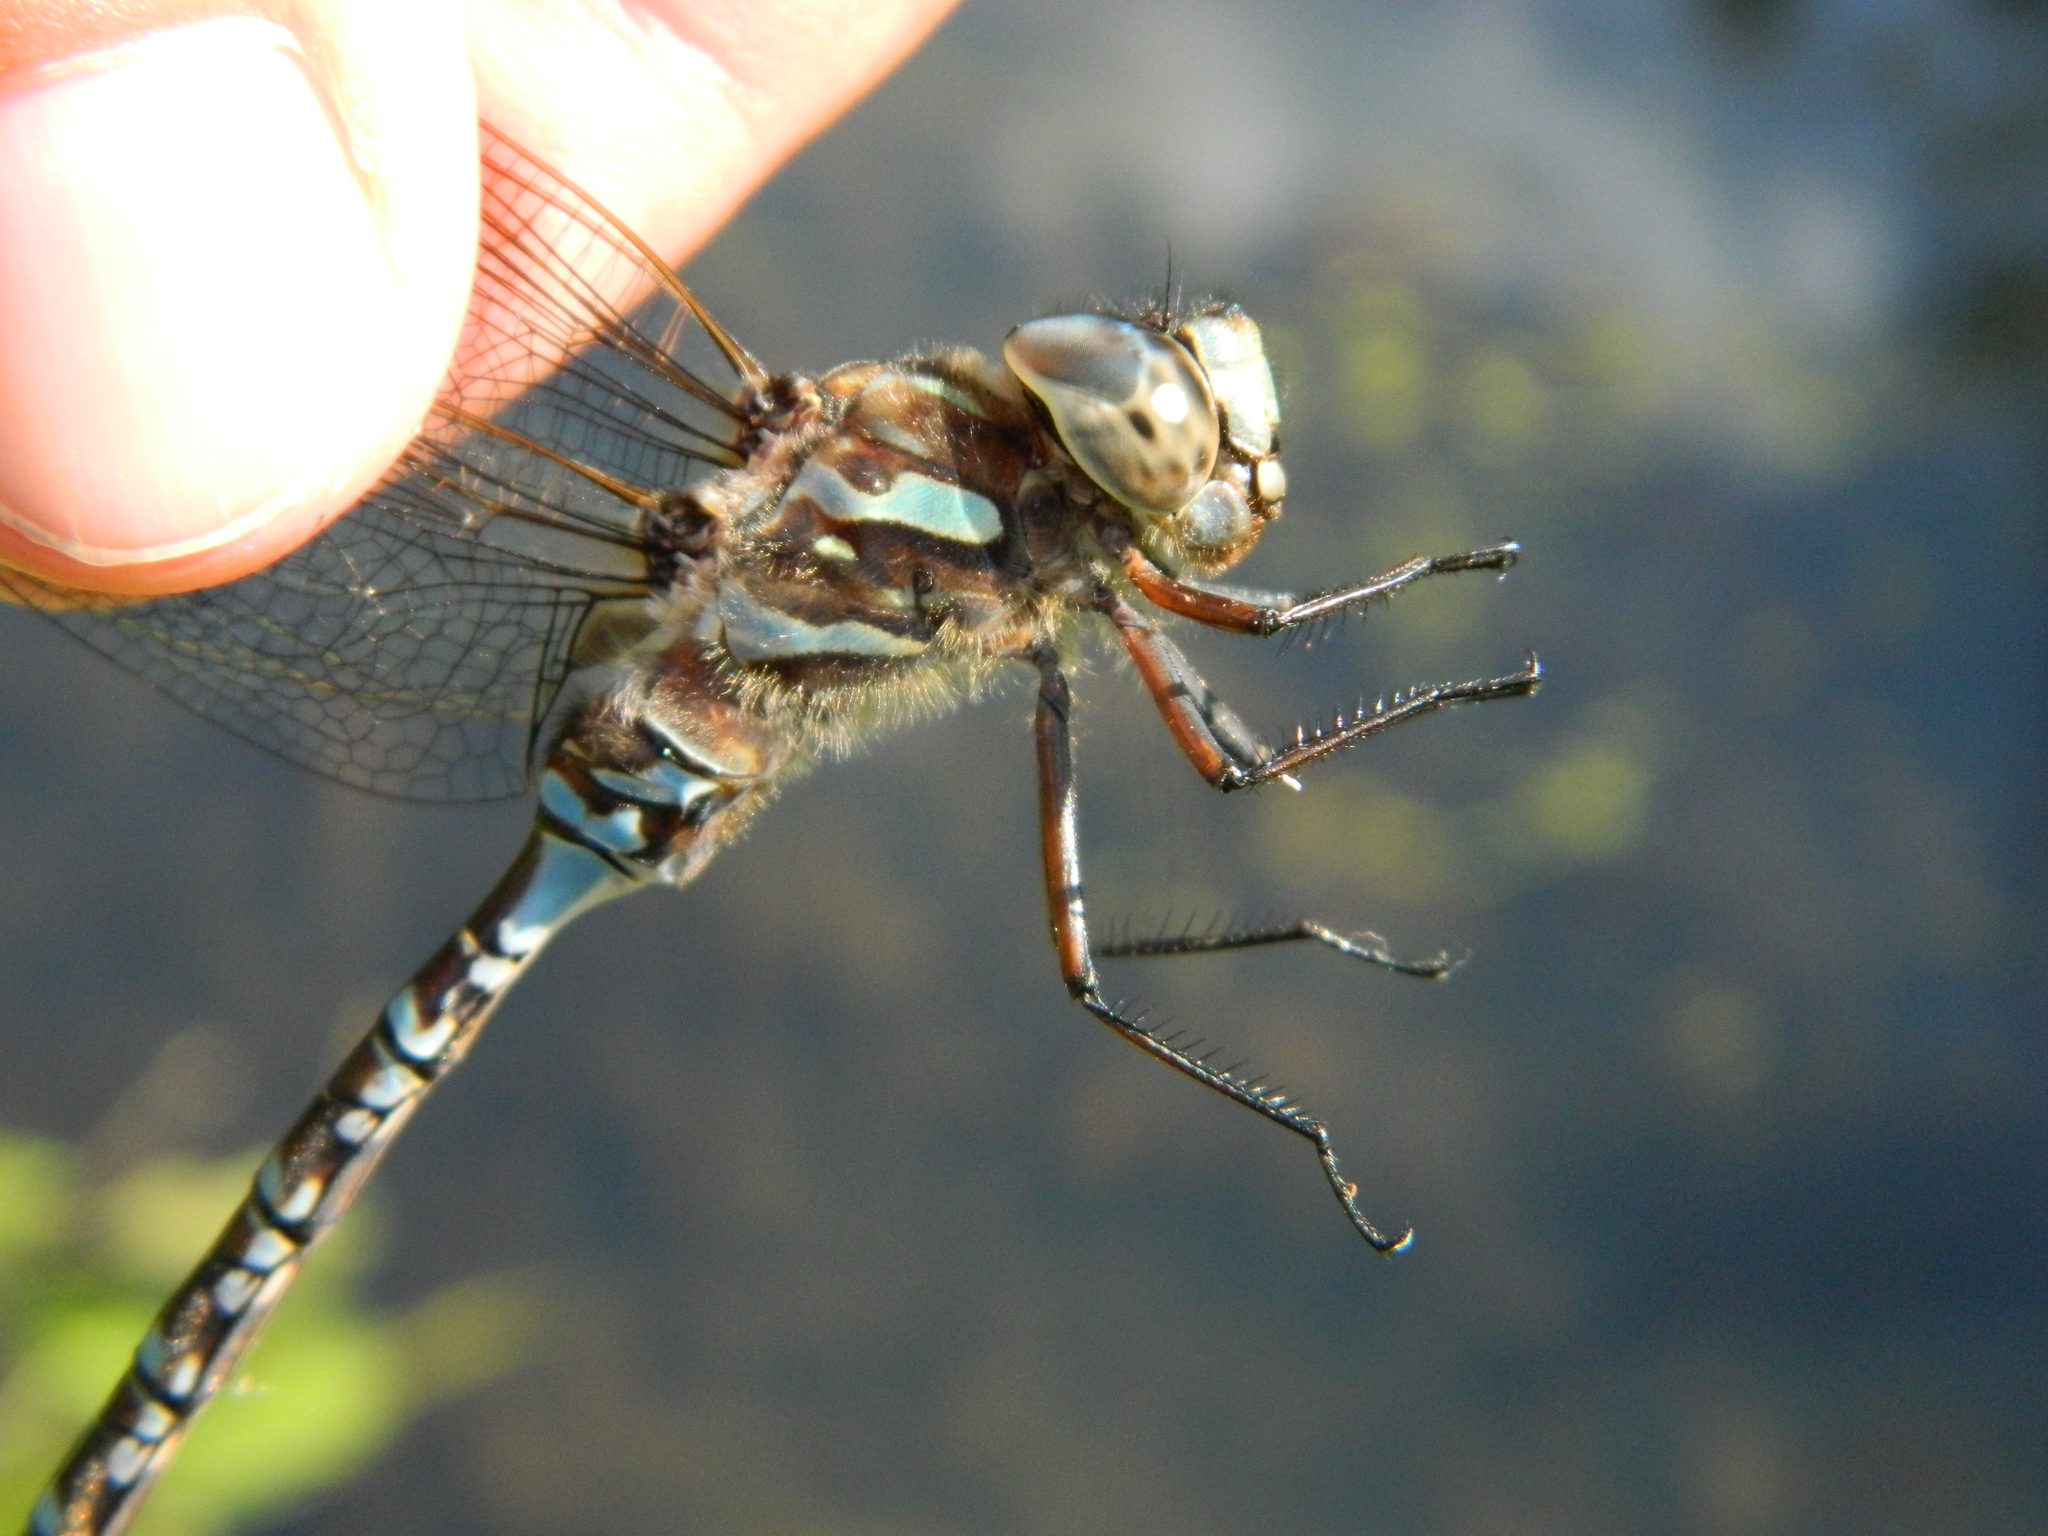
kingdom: Animalia
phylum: Arthropoda
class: Insecta
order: Odonata
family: Aeshnidae
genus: Aeshna
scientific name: Aeshna canadensis
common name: Canada darner
